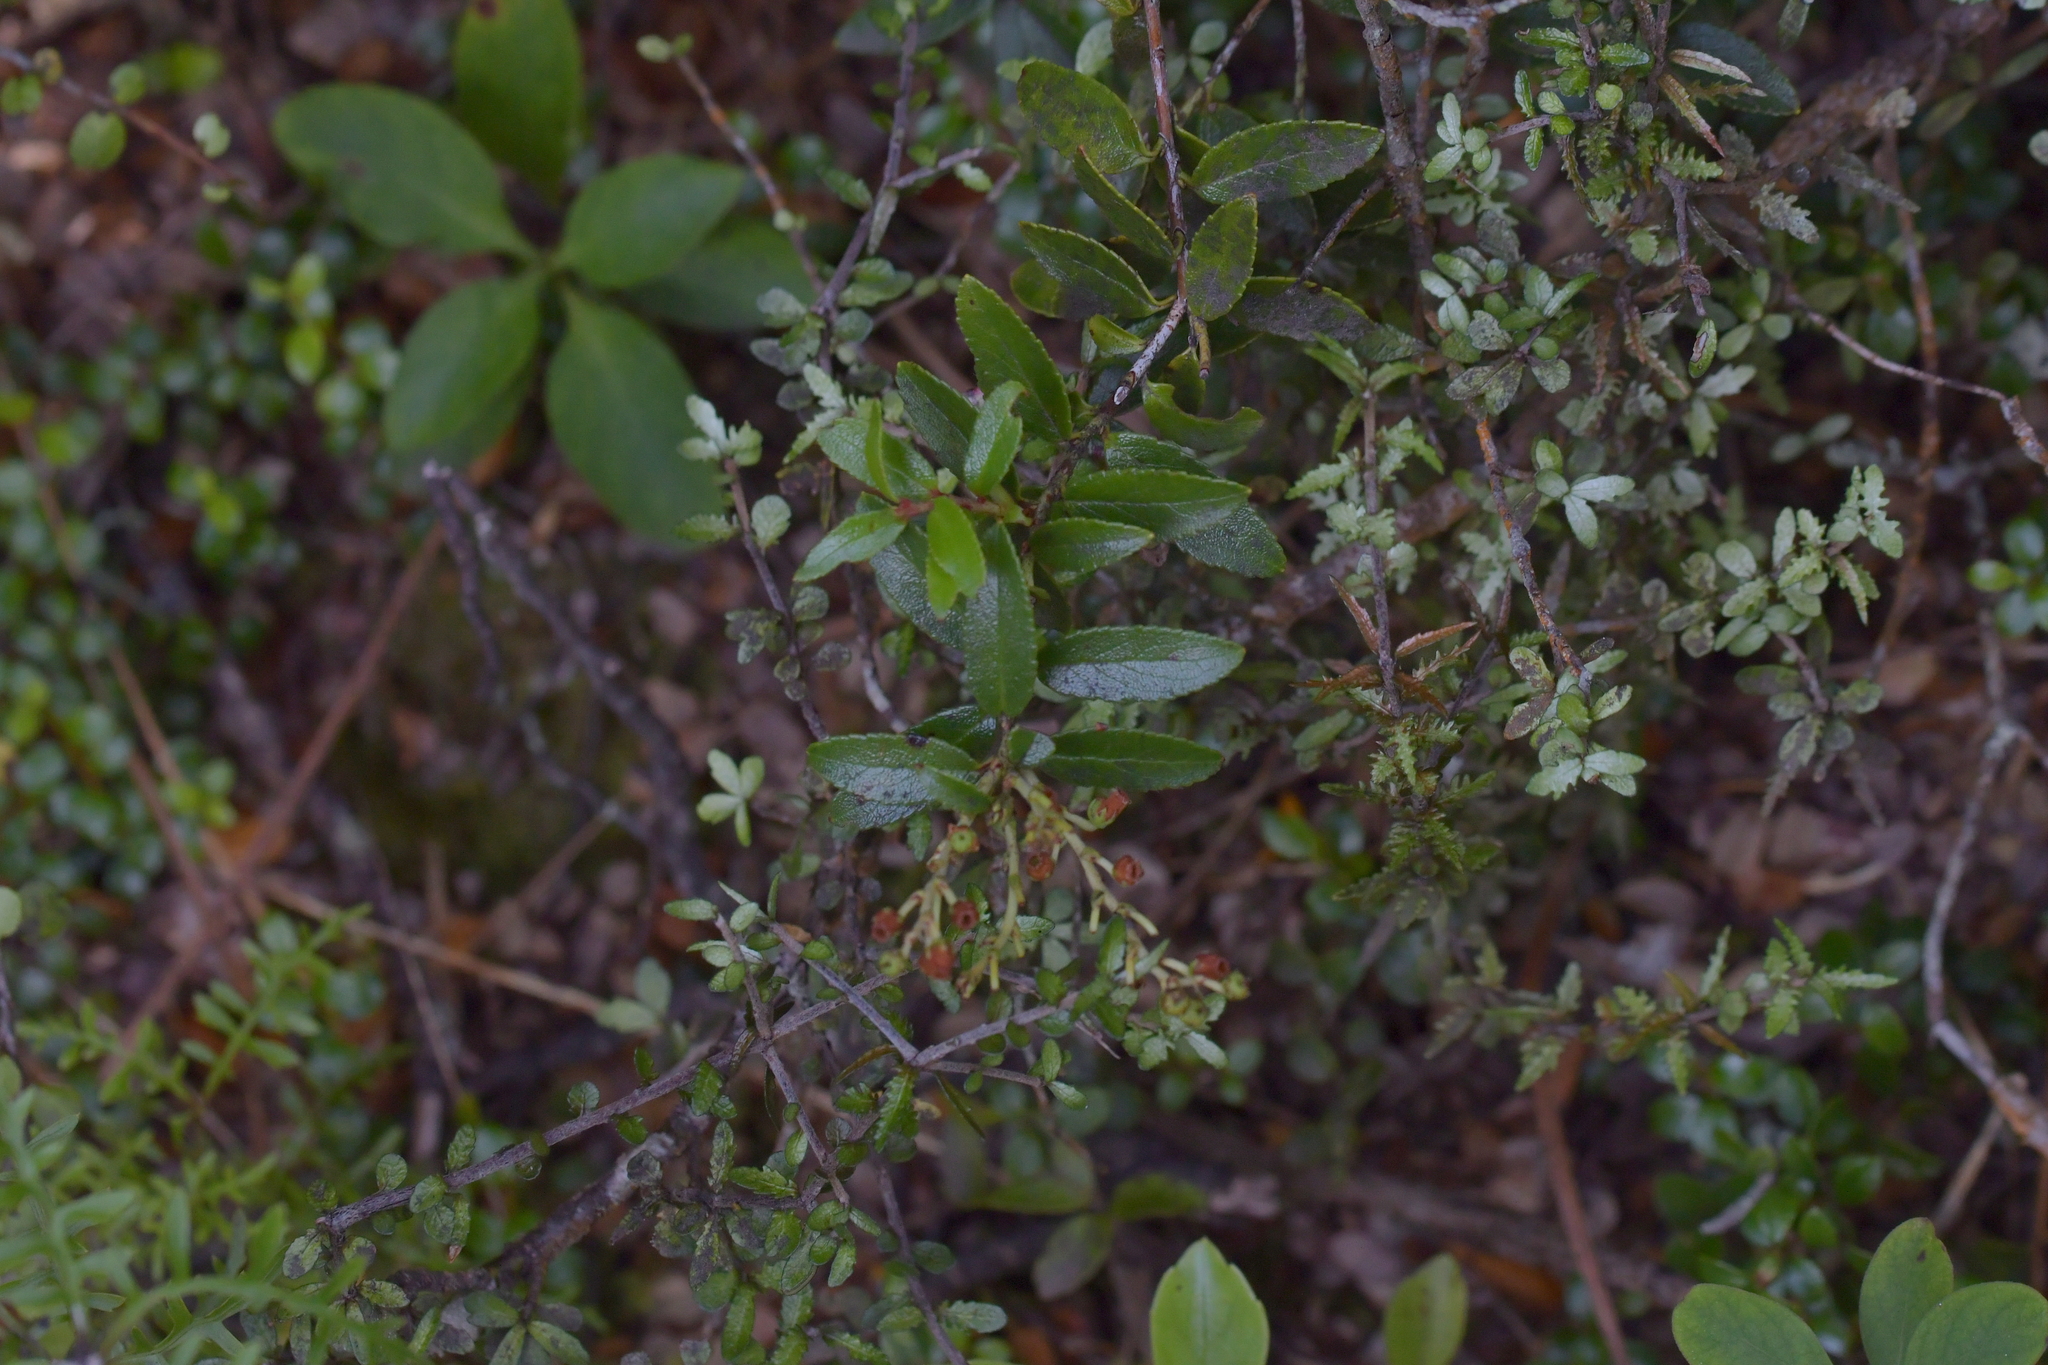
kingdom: Plantae
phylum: Tracheophyta
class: Magnoliopsida
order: Ericales
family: Ericaceae
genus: Gaultheria
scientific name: Gaultheria rupestris
